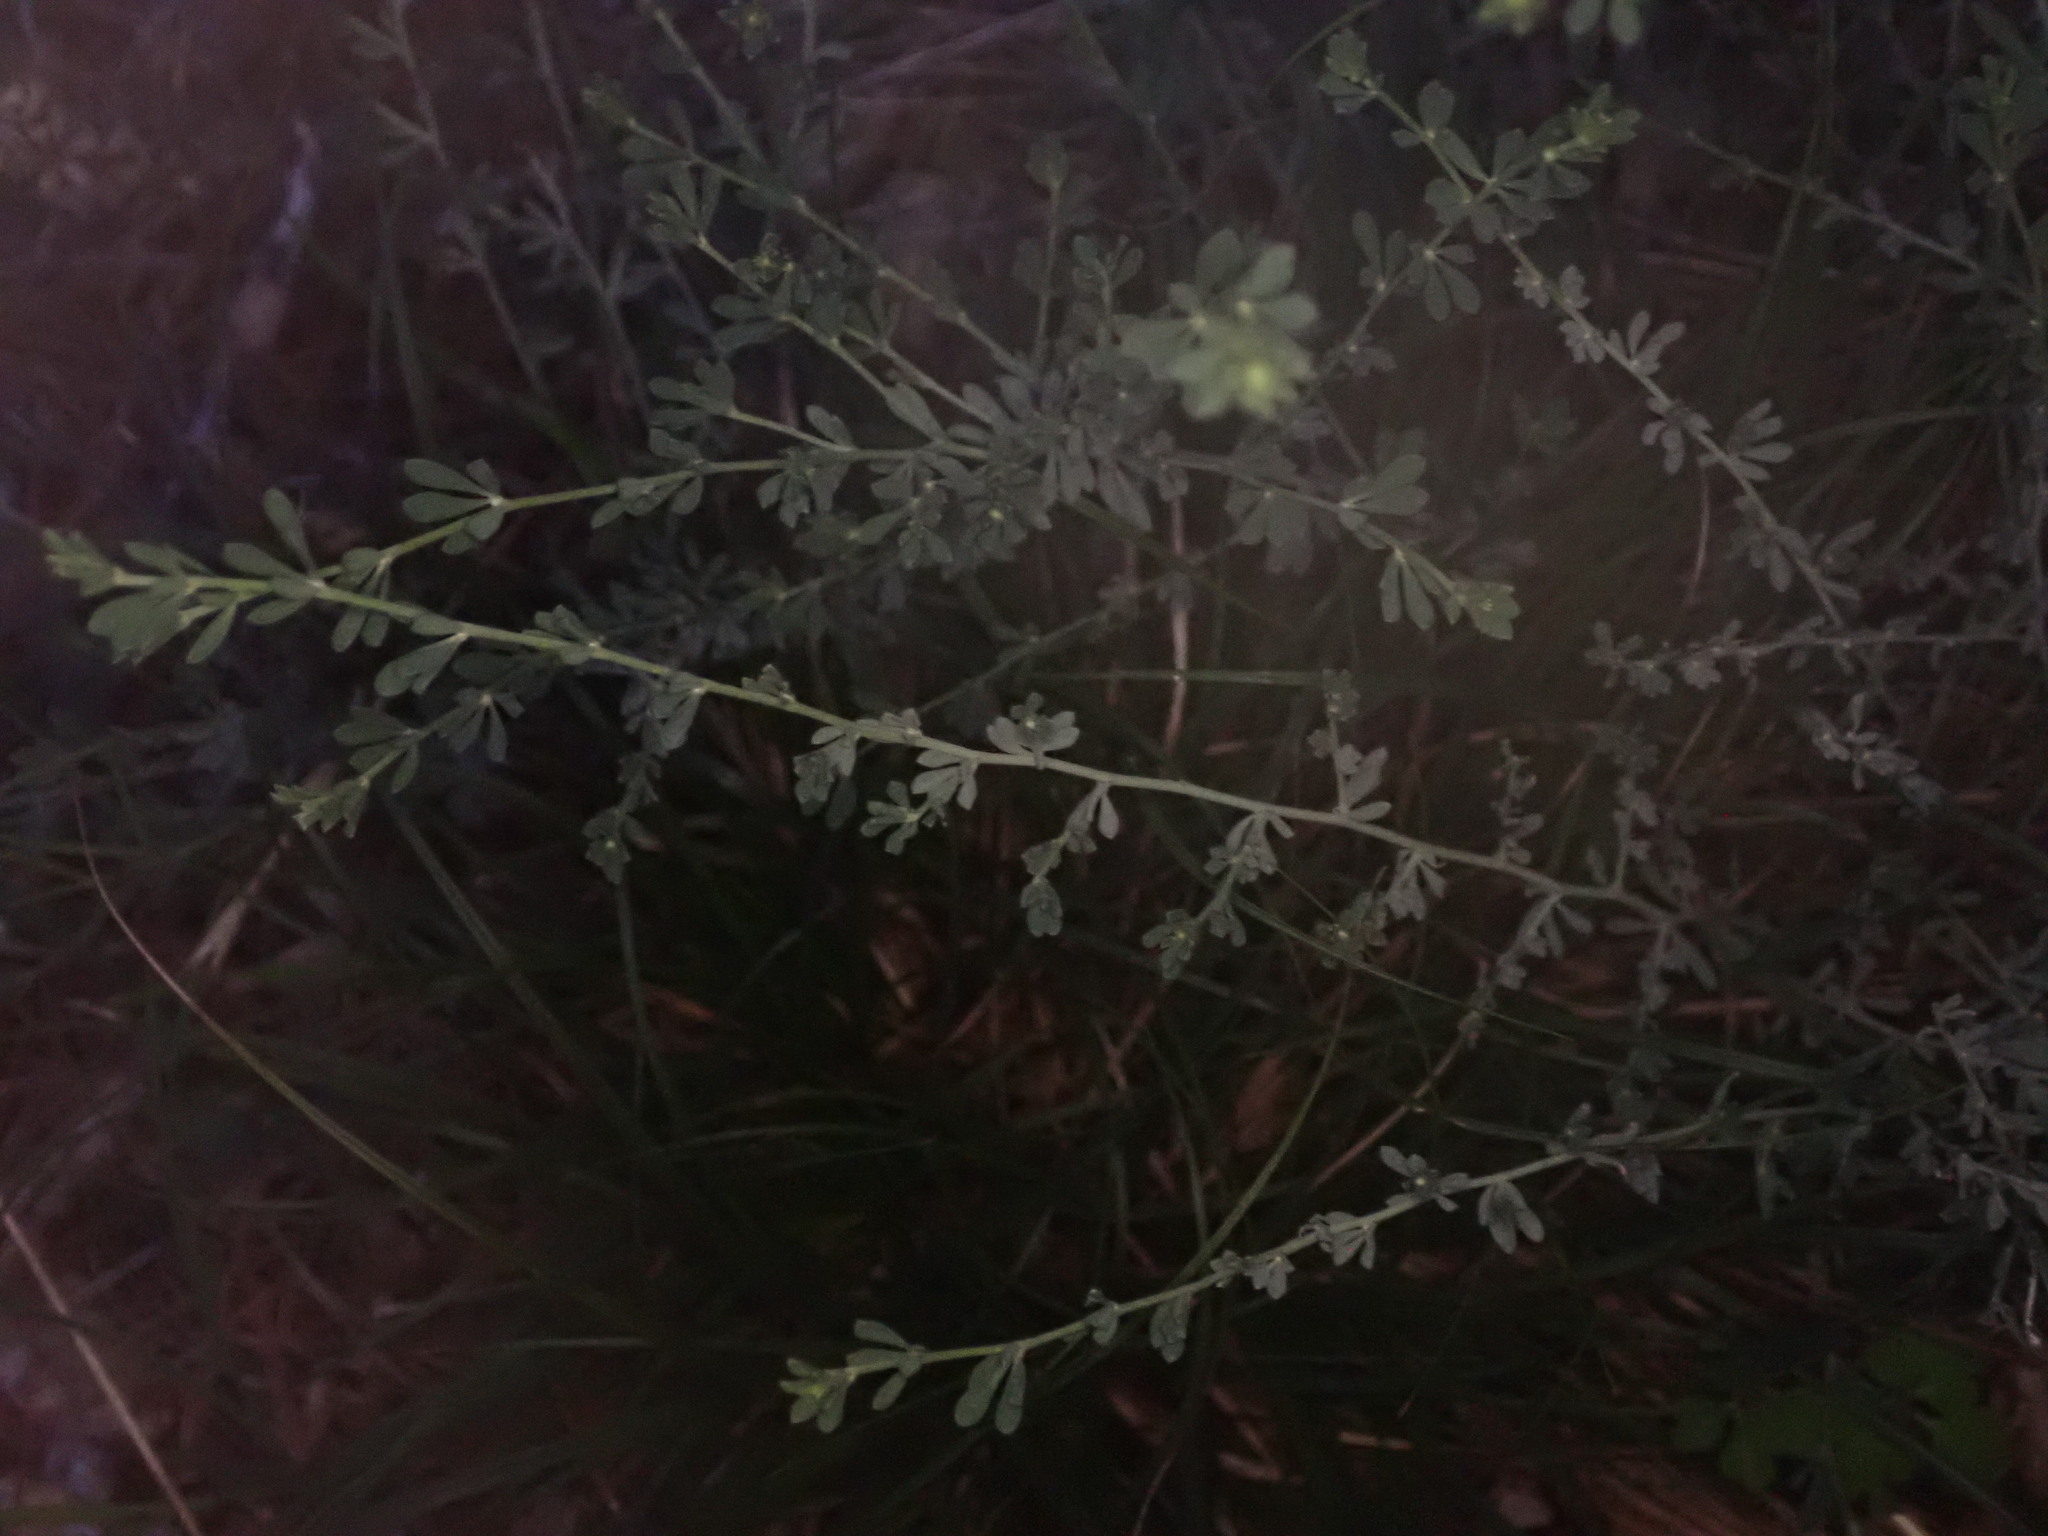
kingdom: Plantae
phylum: Tracheophyta
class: Magnoliopsida
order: Fabales
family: Fabaceae
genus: Lotus
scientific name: Lotus dorycnium
